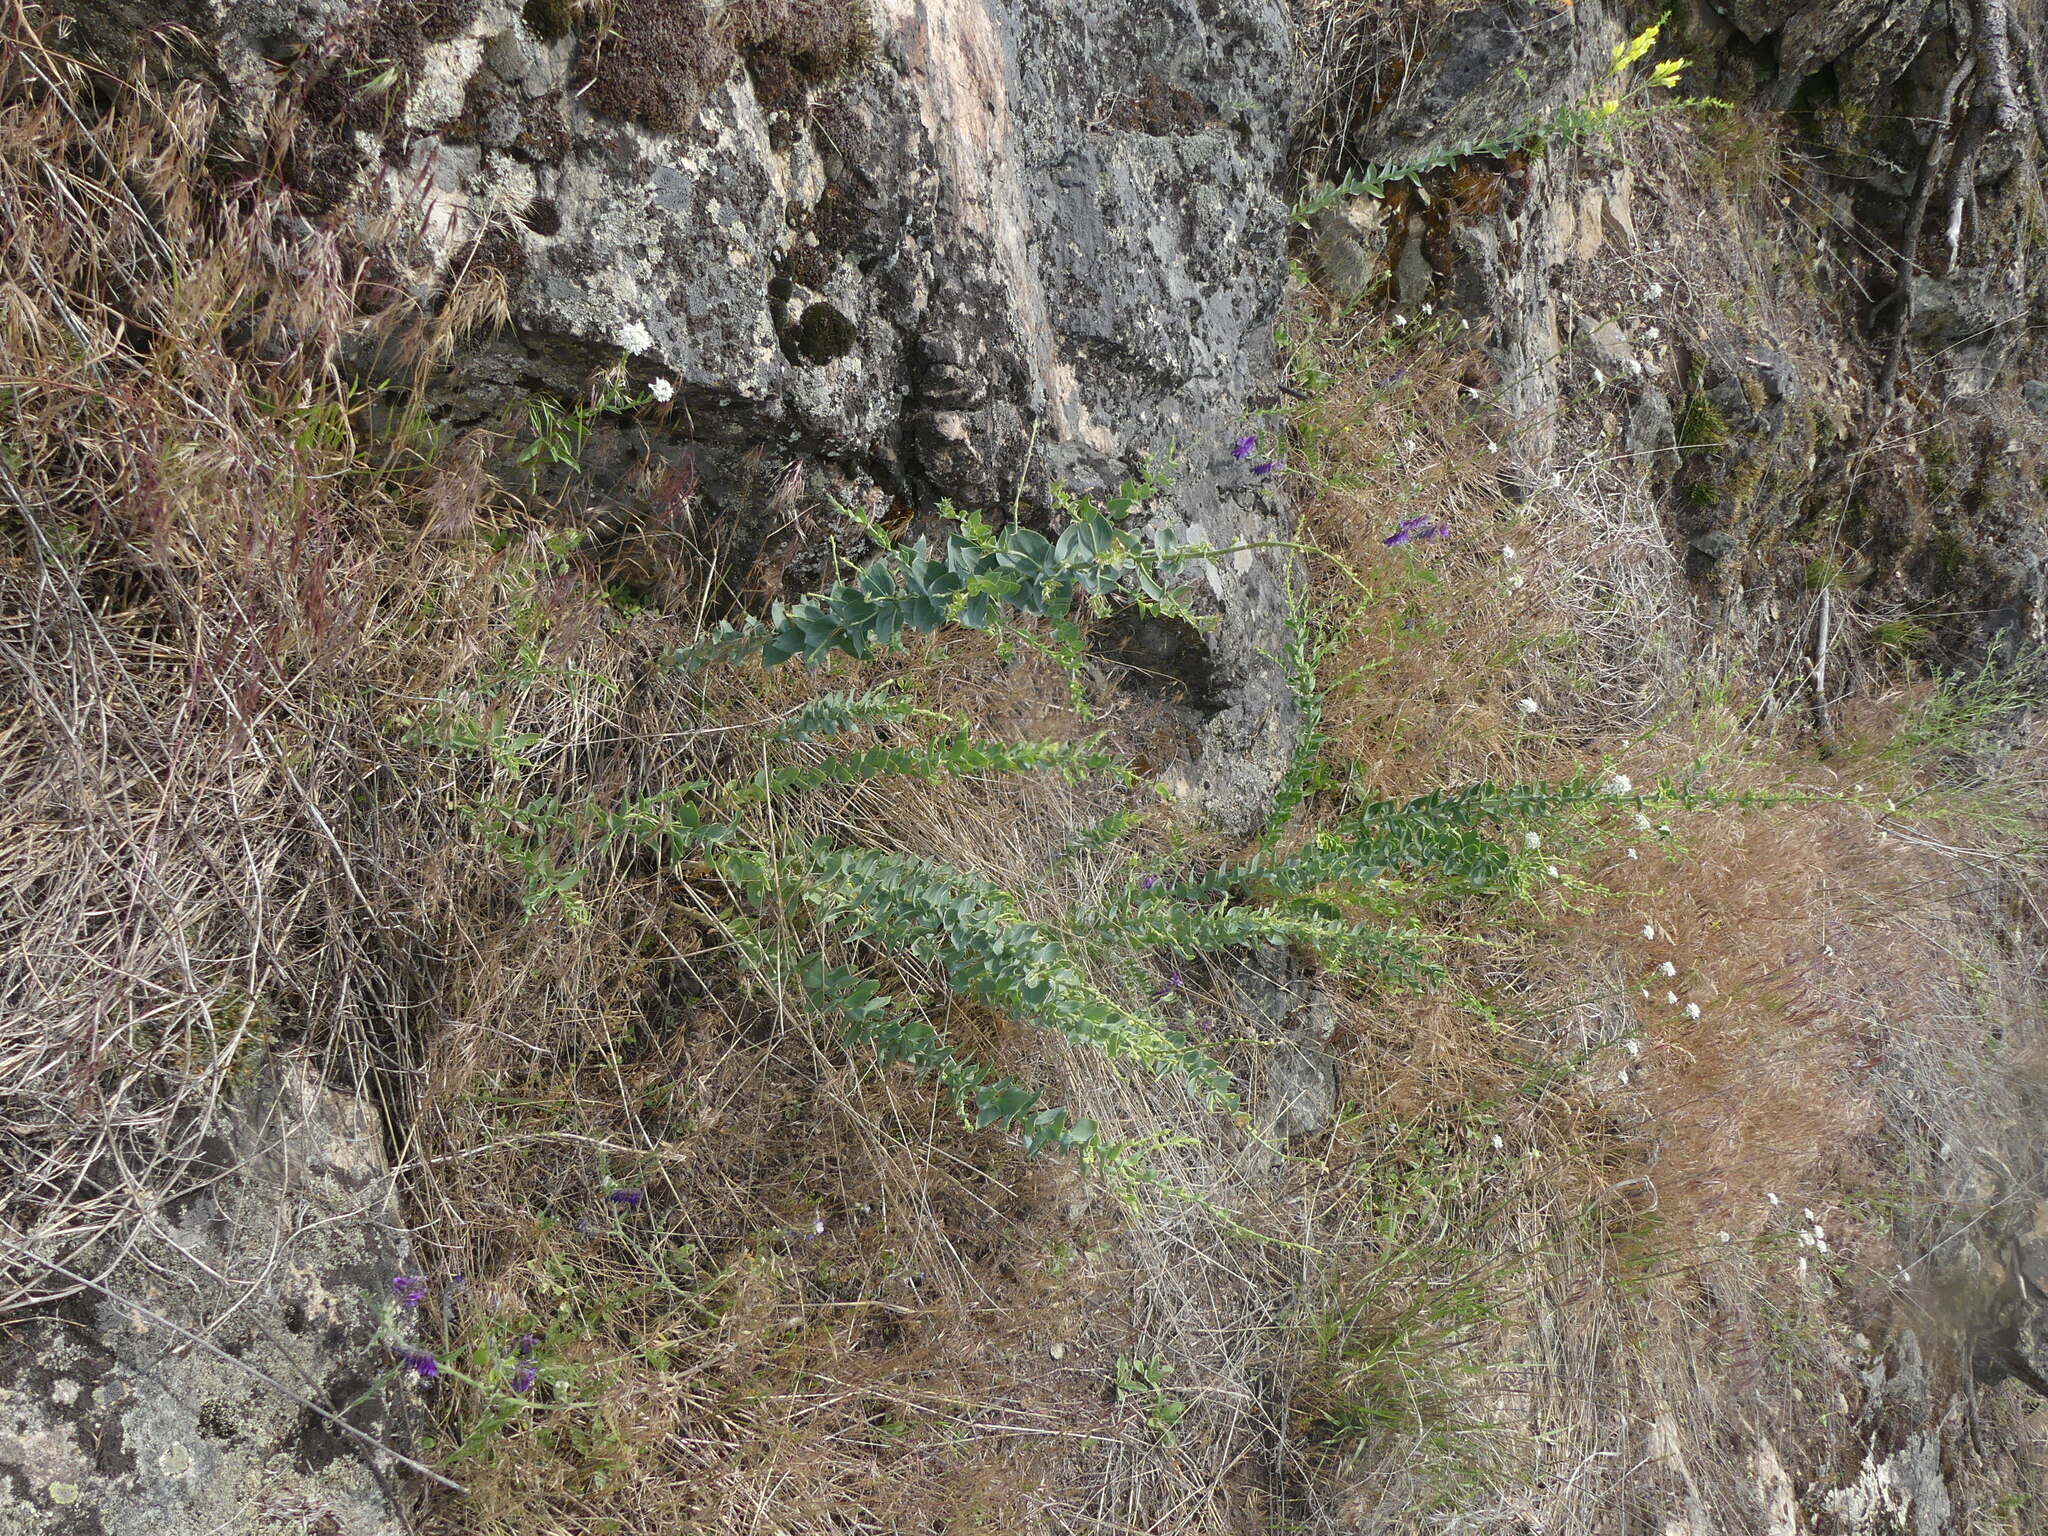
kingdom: Plantae
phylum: Tracheophyta
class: Magnoliopsida
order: Lamiales
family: Plantaginaceae
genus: Linaria
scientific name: Linaria dalmatica
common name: Dalmatian toadflax
